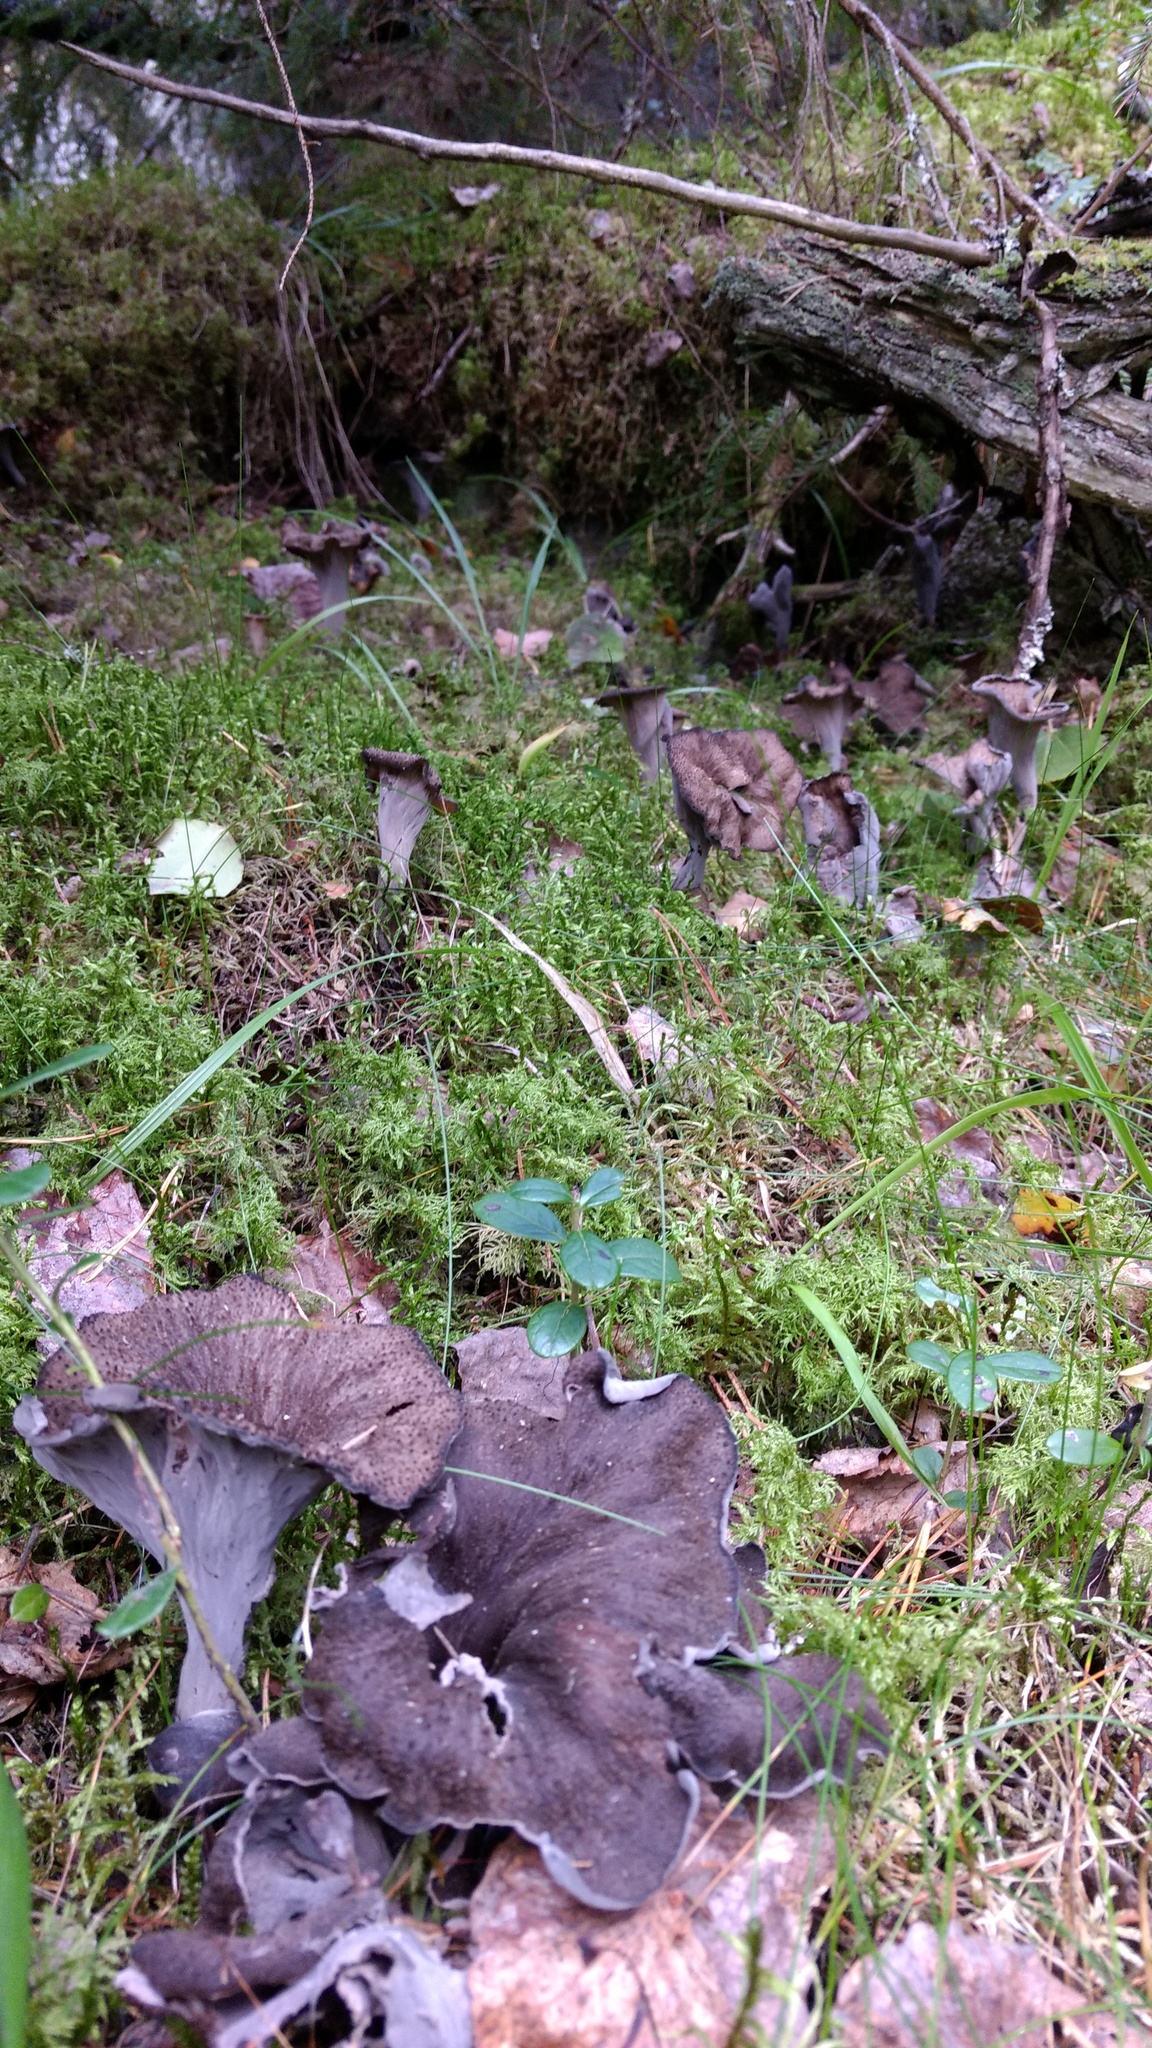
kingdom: Fungi
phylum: Basidiomycota
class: Agaricomycetes
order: Cantharellales
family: Hydnaceae
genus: Craterellus
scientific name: Craterellus cornucopioides
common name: Horn of plenty
